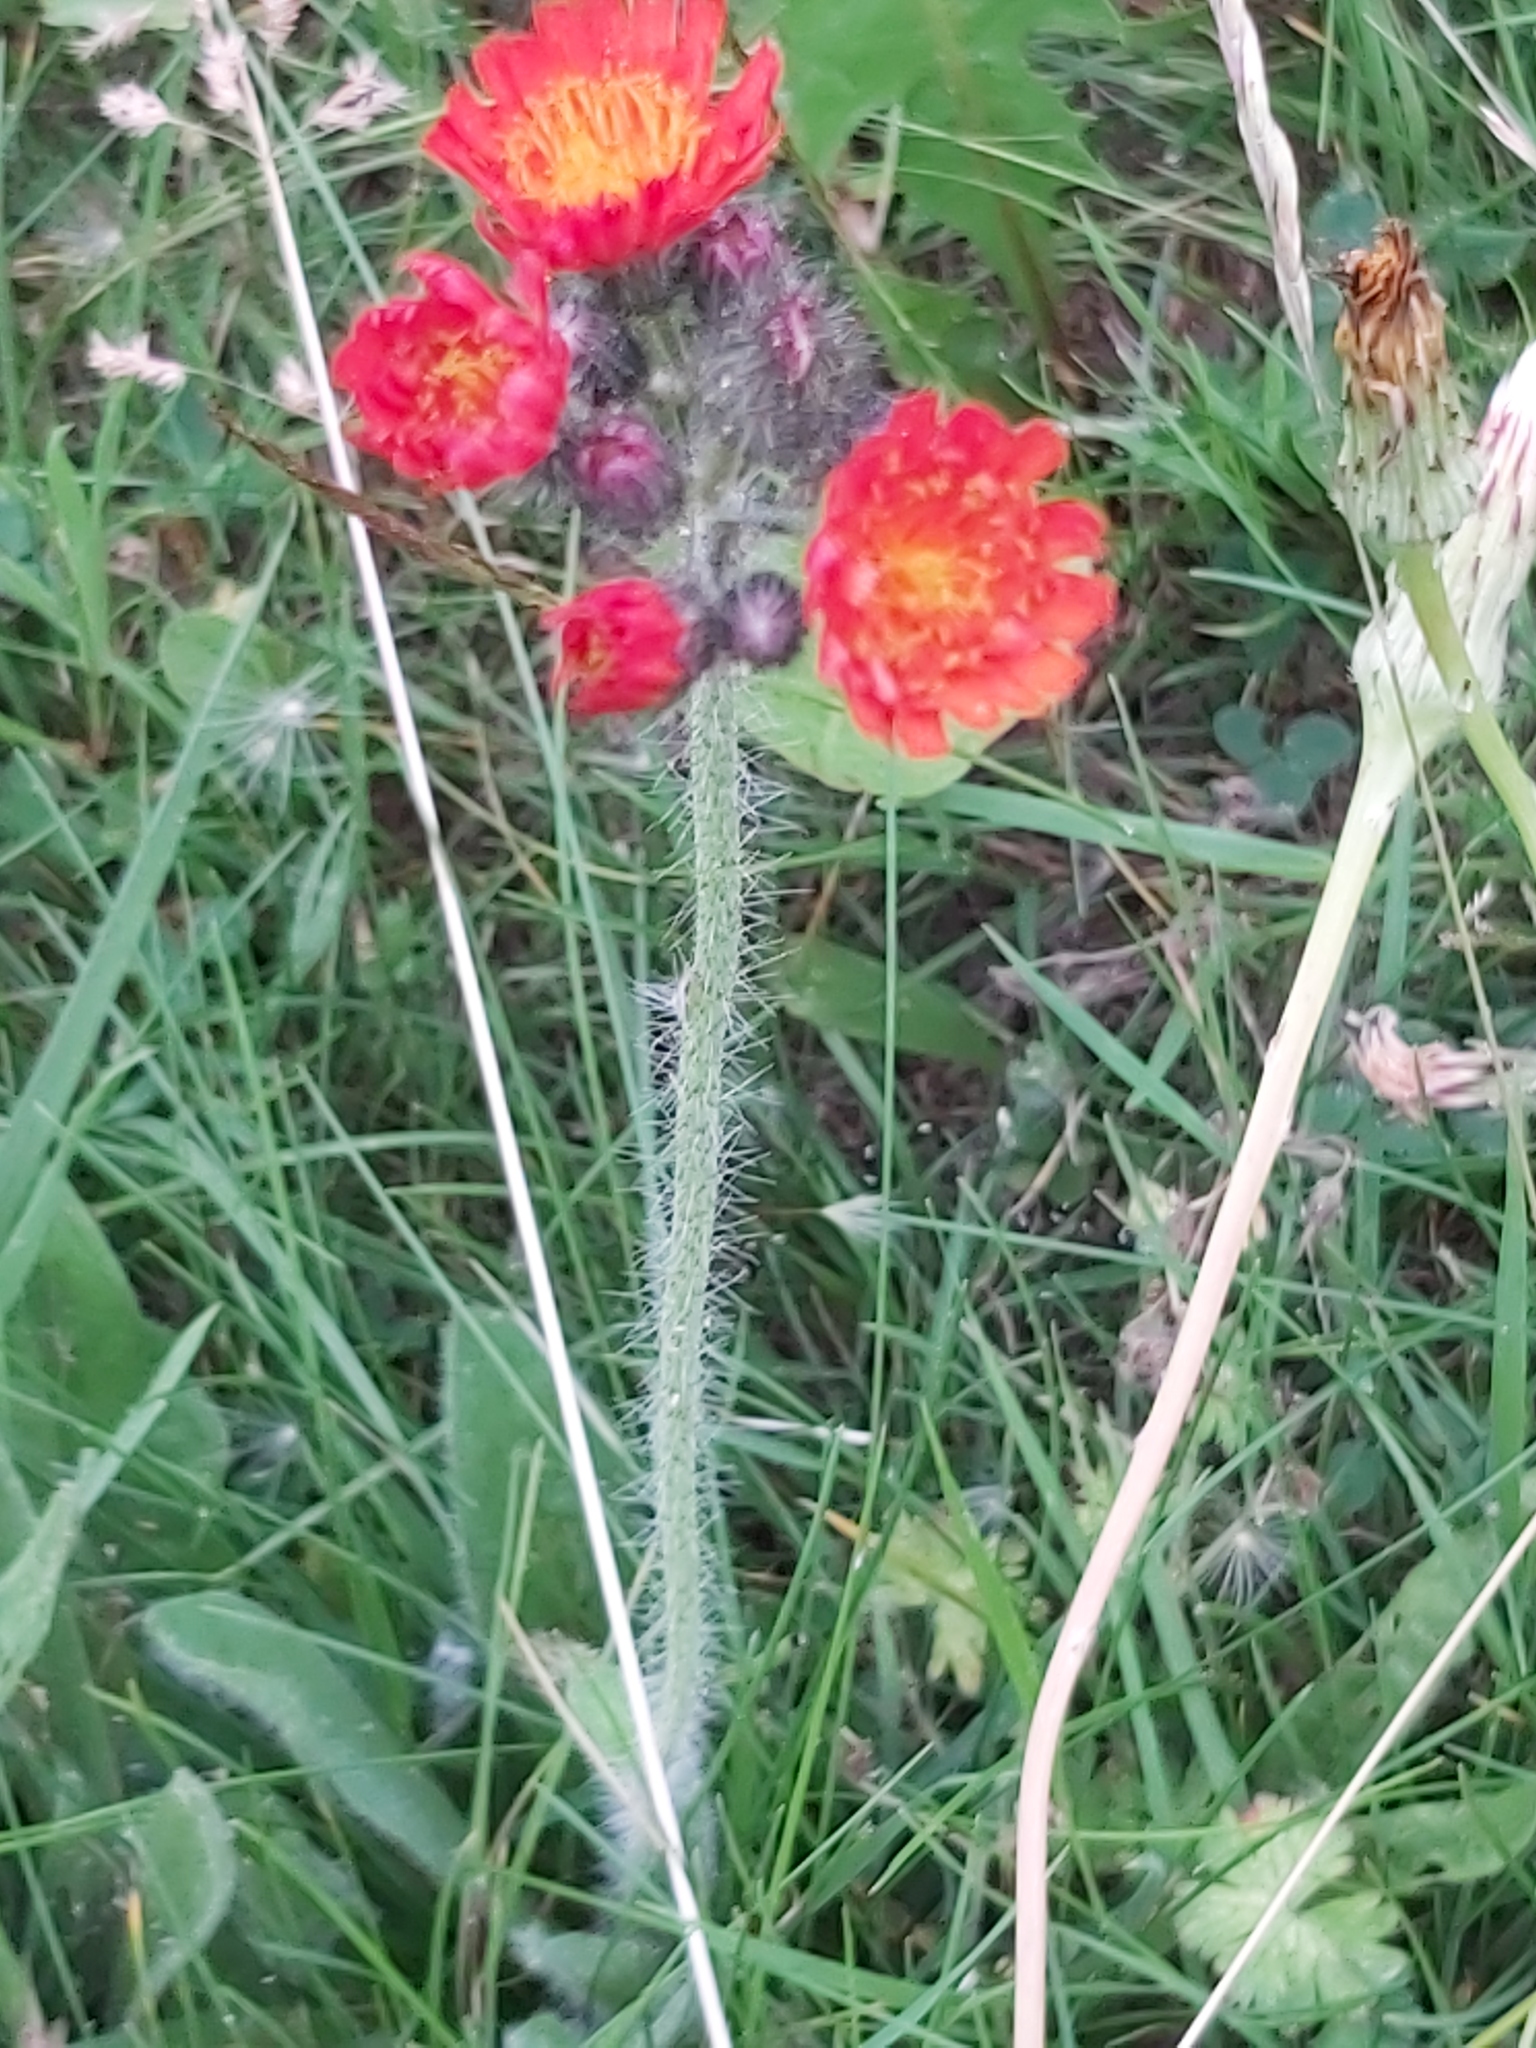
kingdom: Plantae
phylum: Tracheophyta
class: Magnoliopsida
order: Asterales
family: Asteraceae
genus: Pilosella
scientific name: Pilosella aurantiaca
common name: Fox-and-cubs
